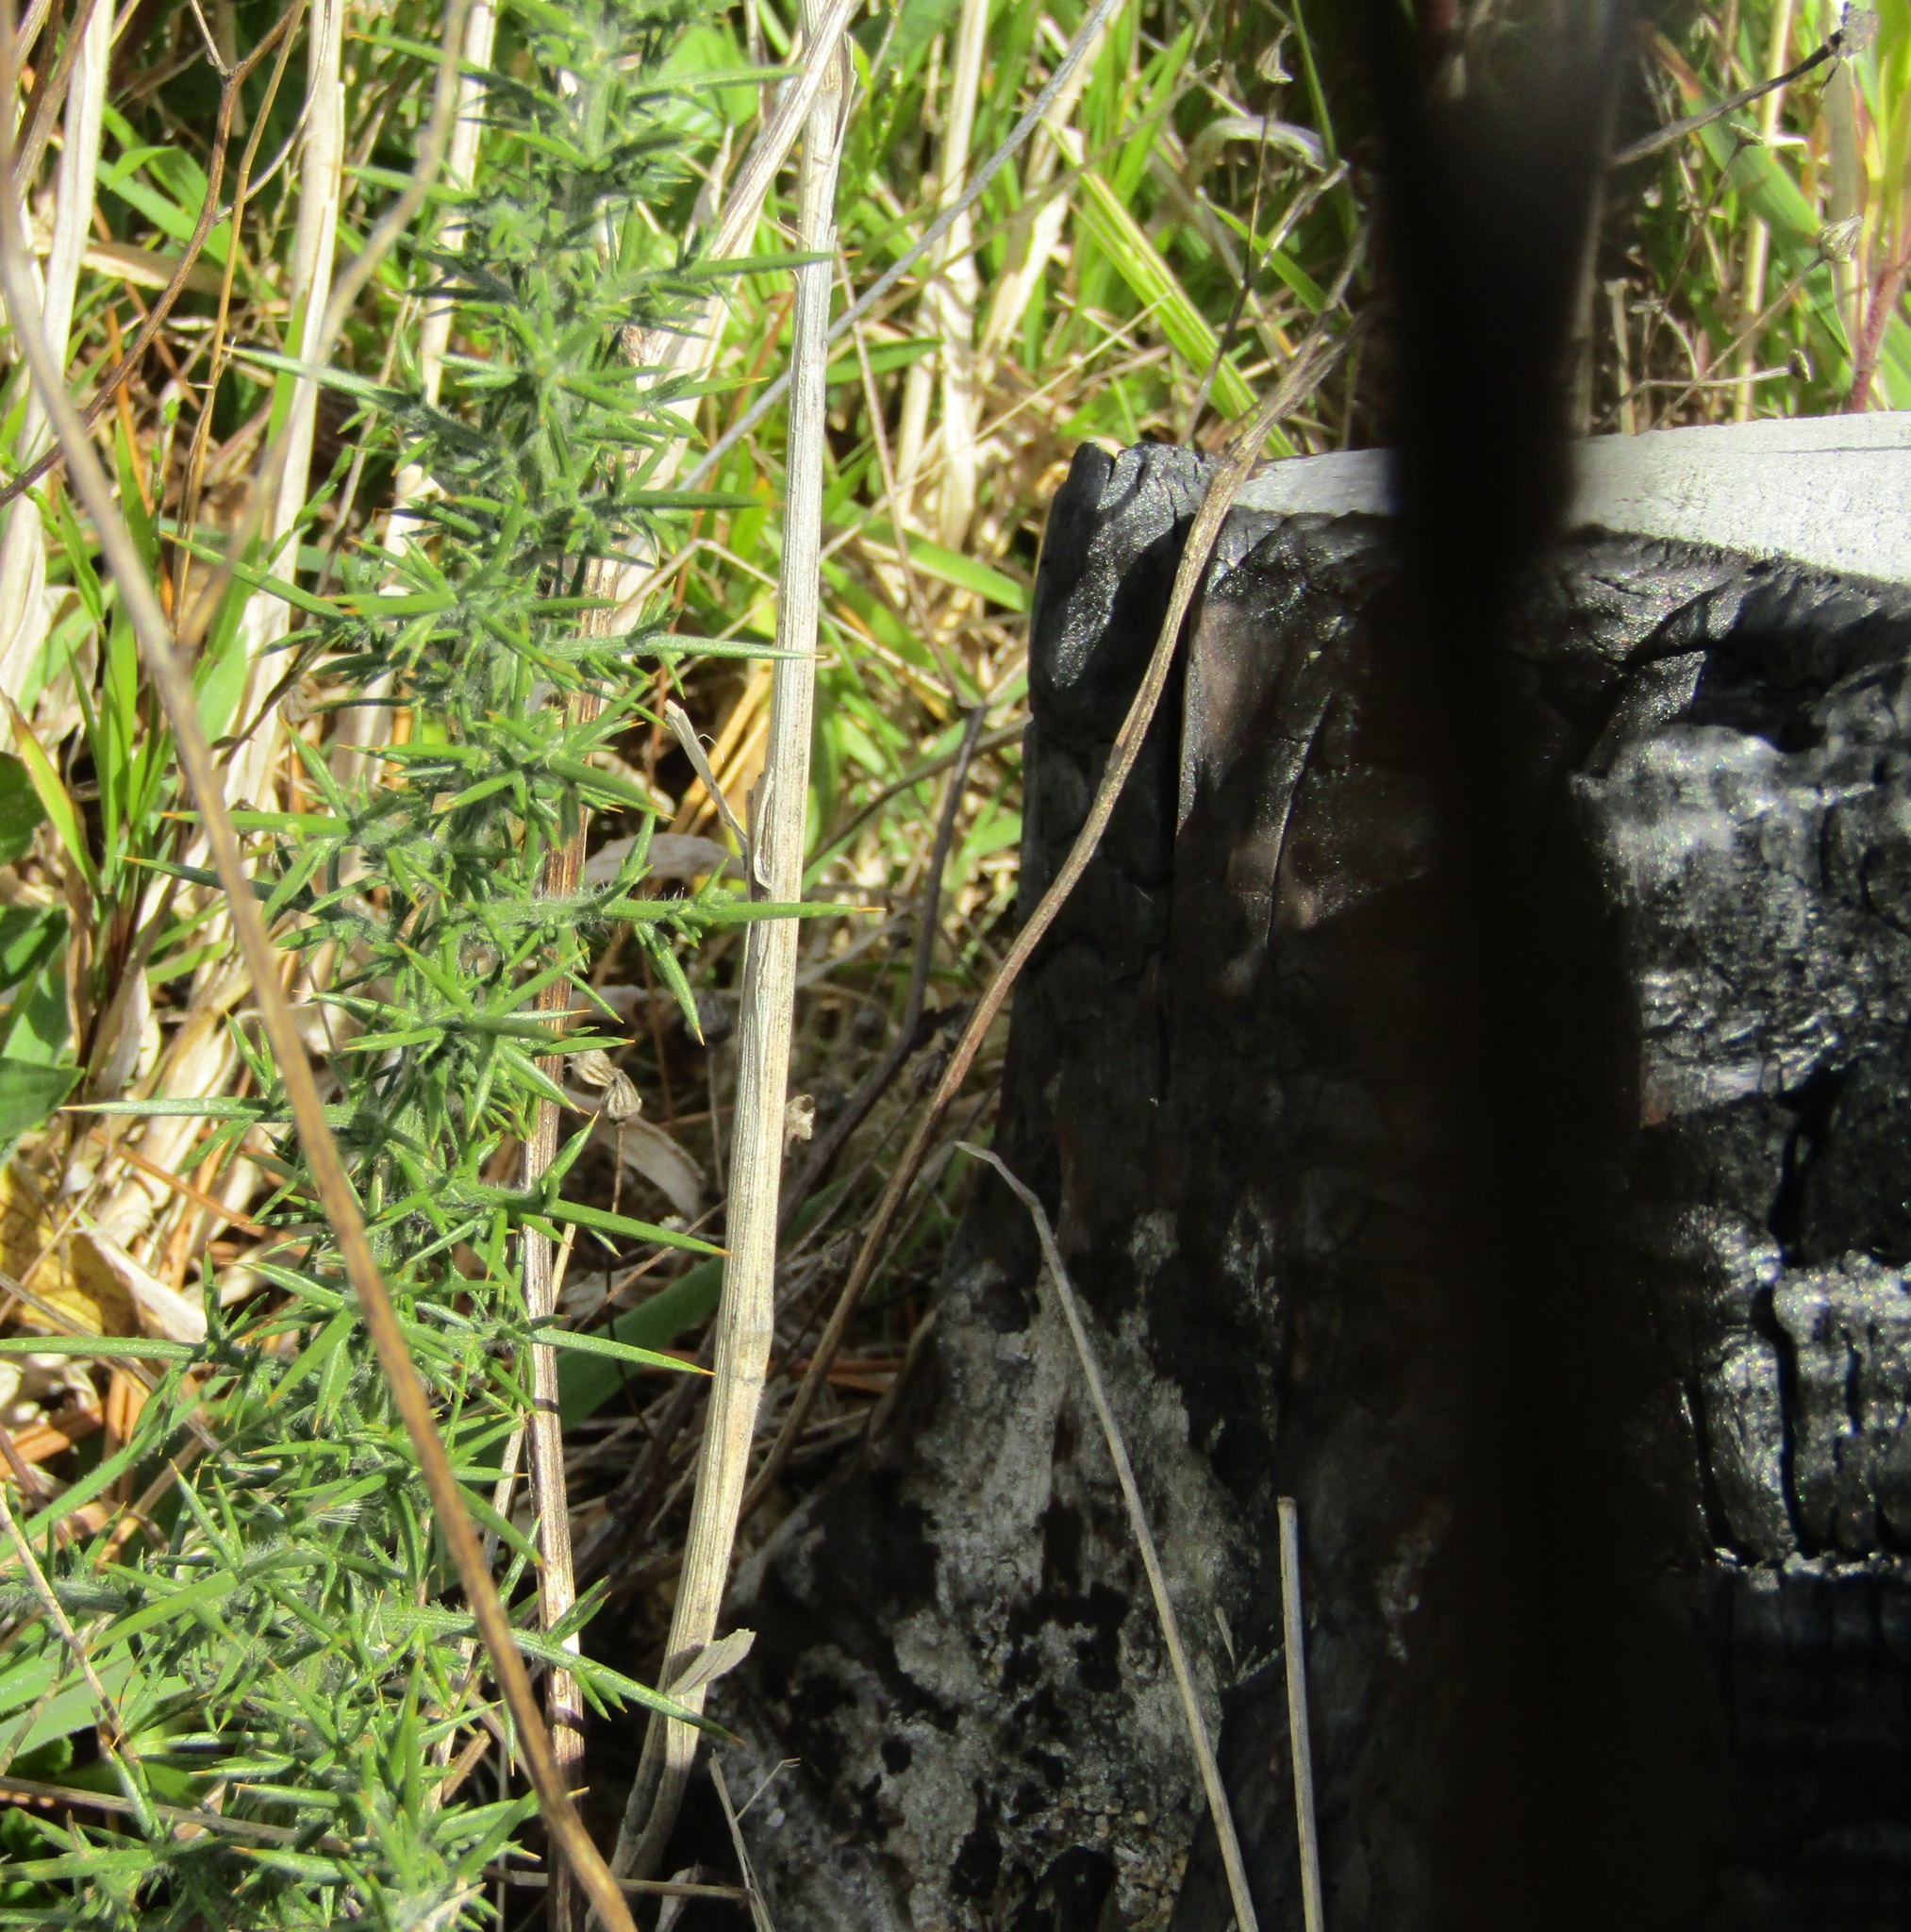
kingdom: Plantae
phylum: Tracheophyta
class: Magnoliopsida
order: Fabales
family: Fabaceae
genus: Ulex
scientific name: Ulex europaeus
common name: Common gorse
